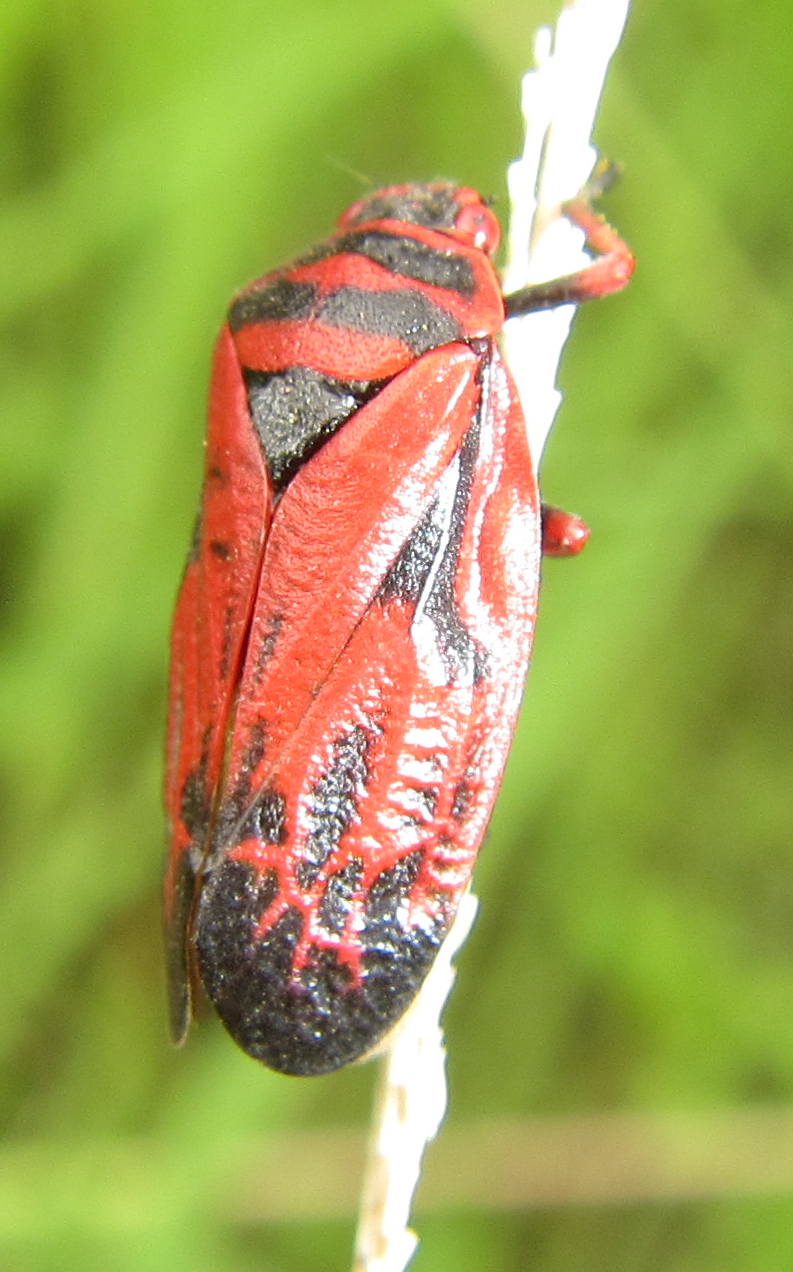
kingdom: Animalia
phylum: Arthropoda
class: Insecta
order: Hemiptera
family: Cercopidae
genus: Locris
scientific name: Locris incarnata
